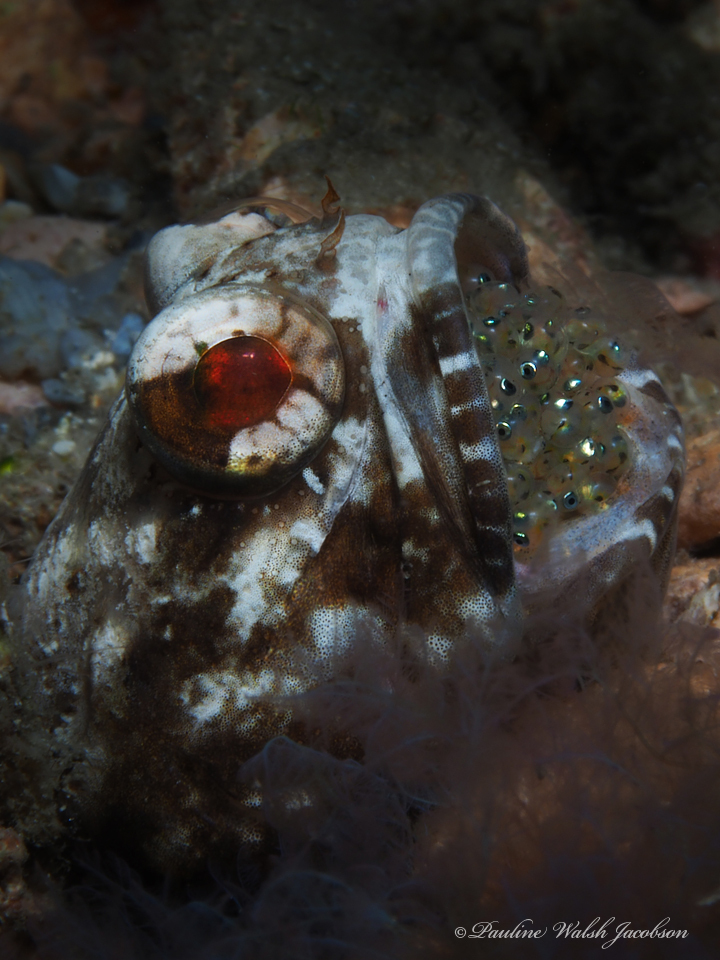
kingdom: Animalia
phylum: Chordata
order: Perciformes
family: Opistognathidae
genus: Opistognathus
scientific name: Opistognathus macrognathus
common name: Banded jawfish
